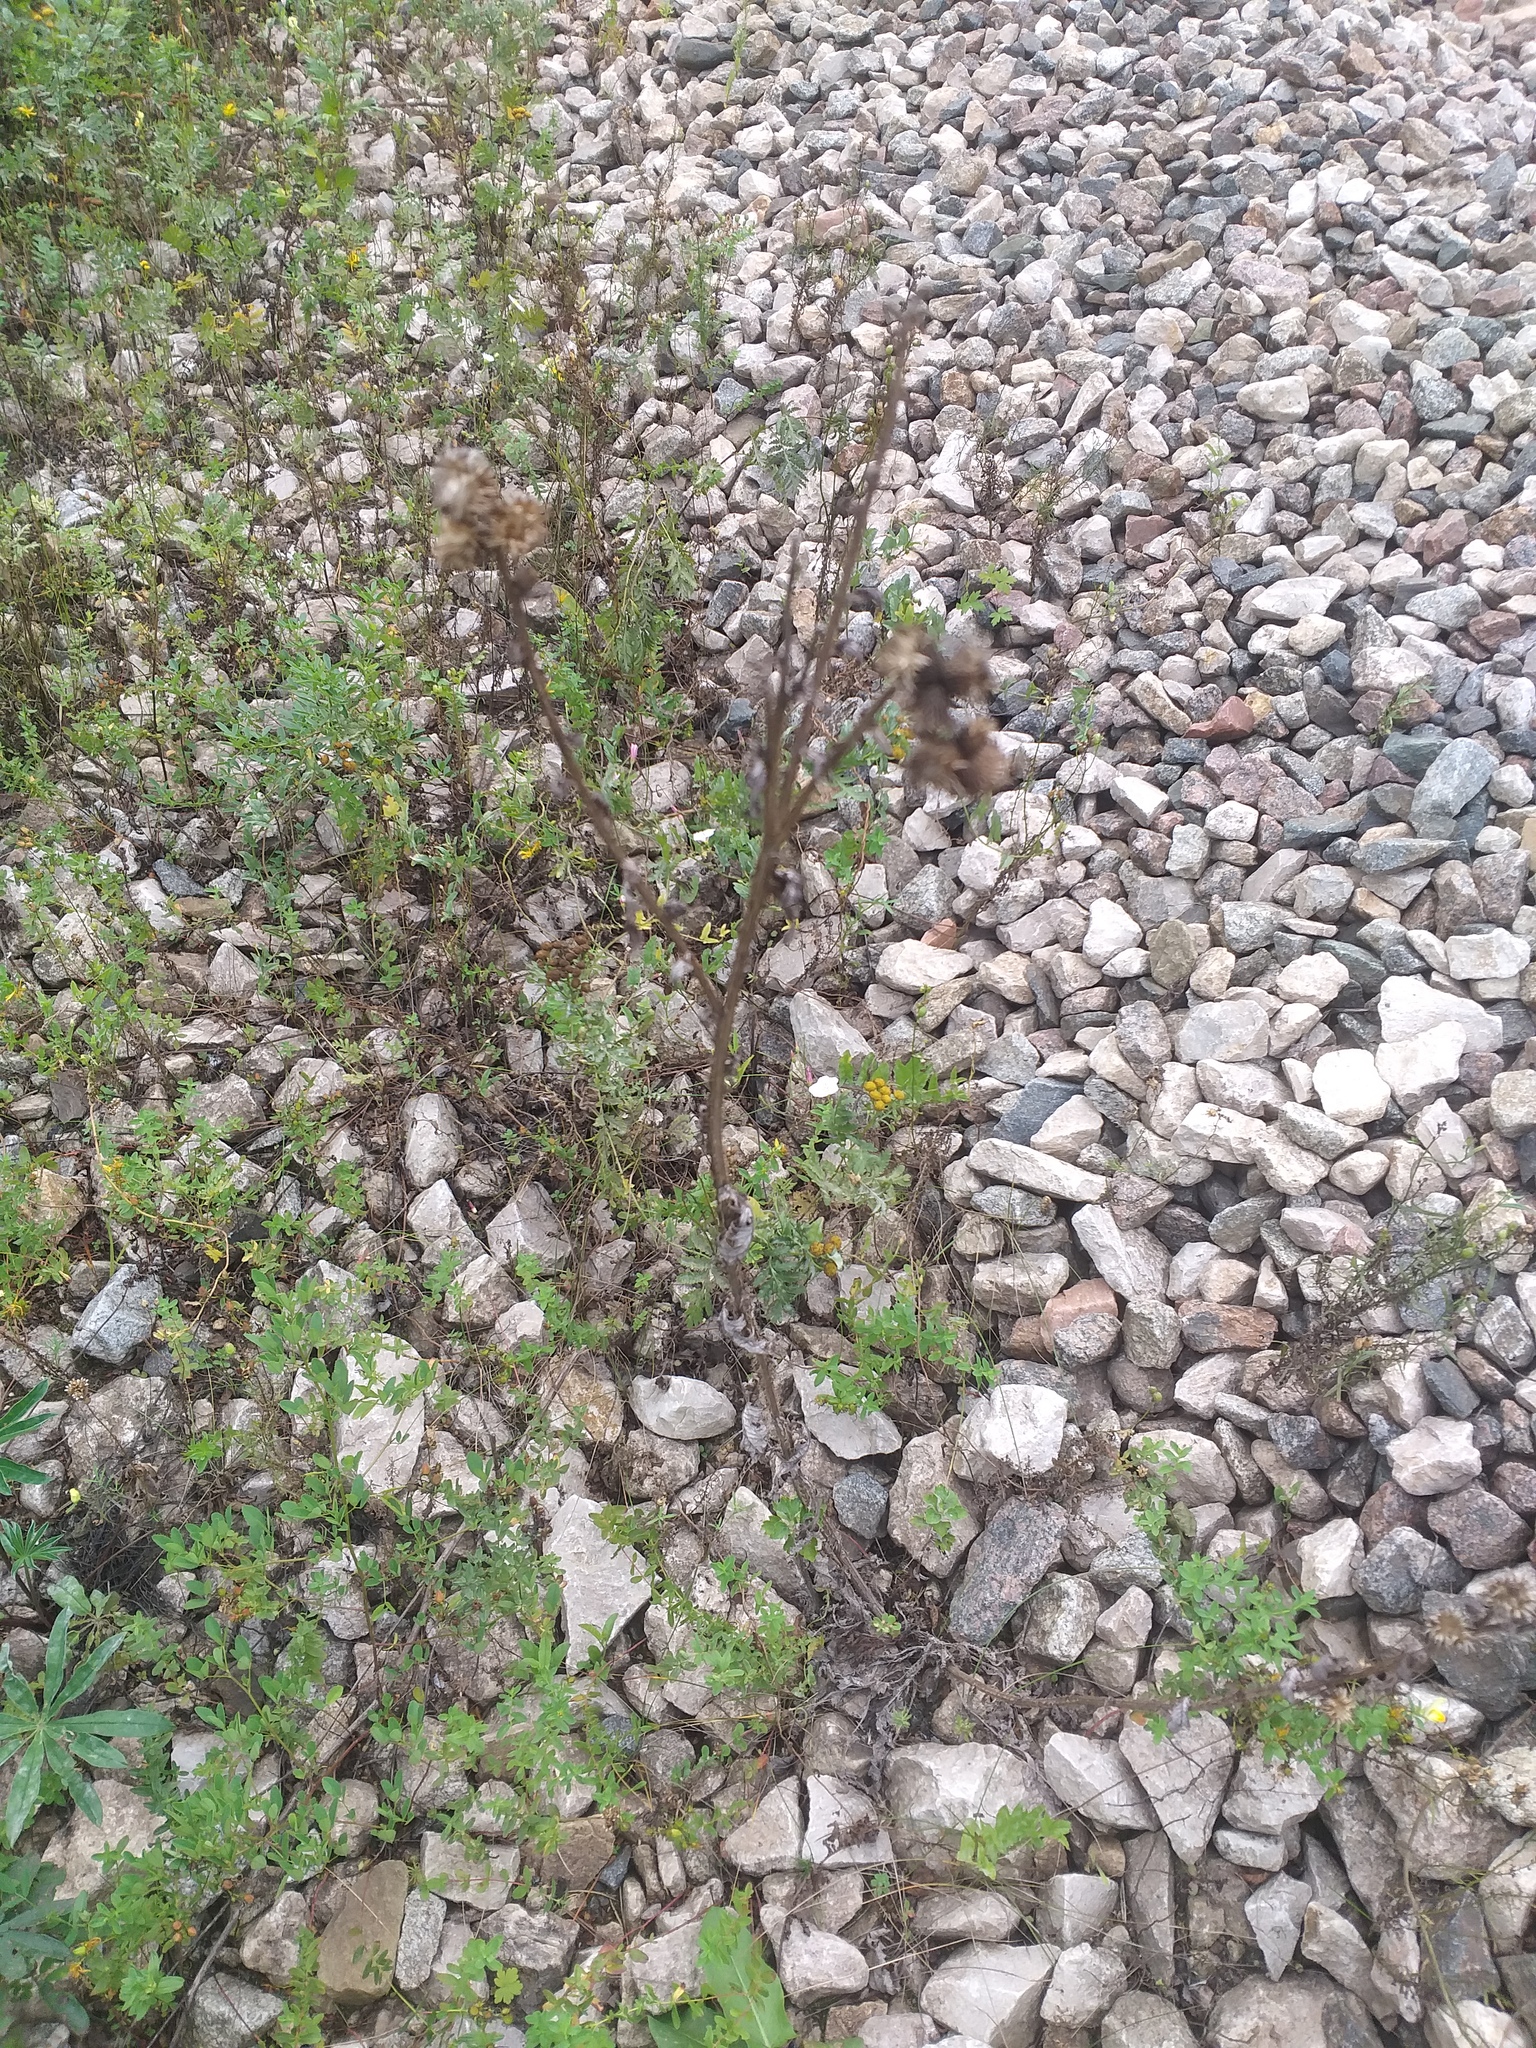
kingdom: Plantae
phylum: Tracheophyta
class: Magnoliopsida
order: Asterales
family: Asteraceae
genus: Tanacetum
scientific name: Tanacetum vulgare
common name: Common tansy
